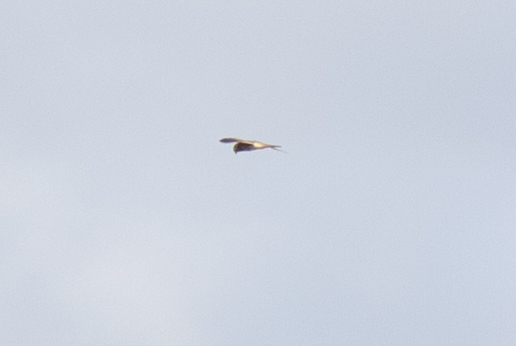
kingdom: Animalia
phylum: Chordata
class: Aves
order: Falconiformes
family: Falconidae
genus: Falco
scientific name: Falco tinnunculus
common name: Common kestrel
